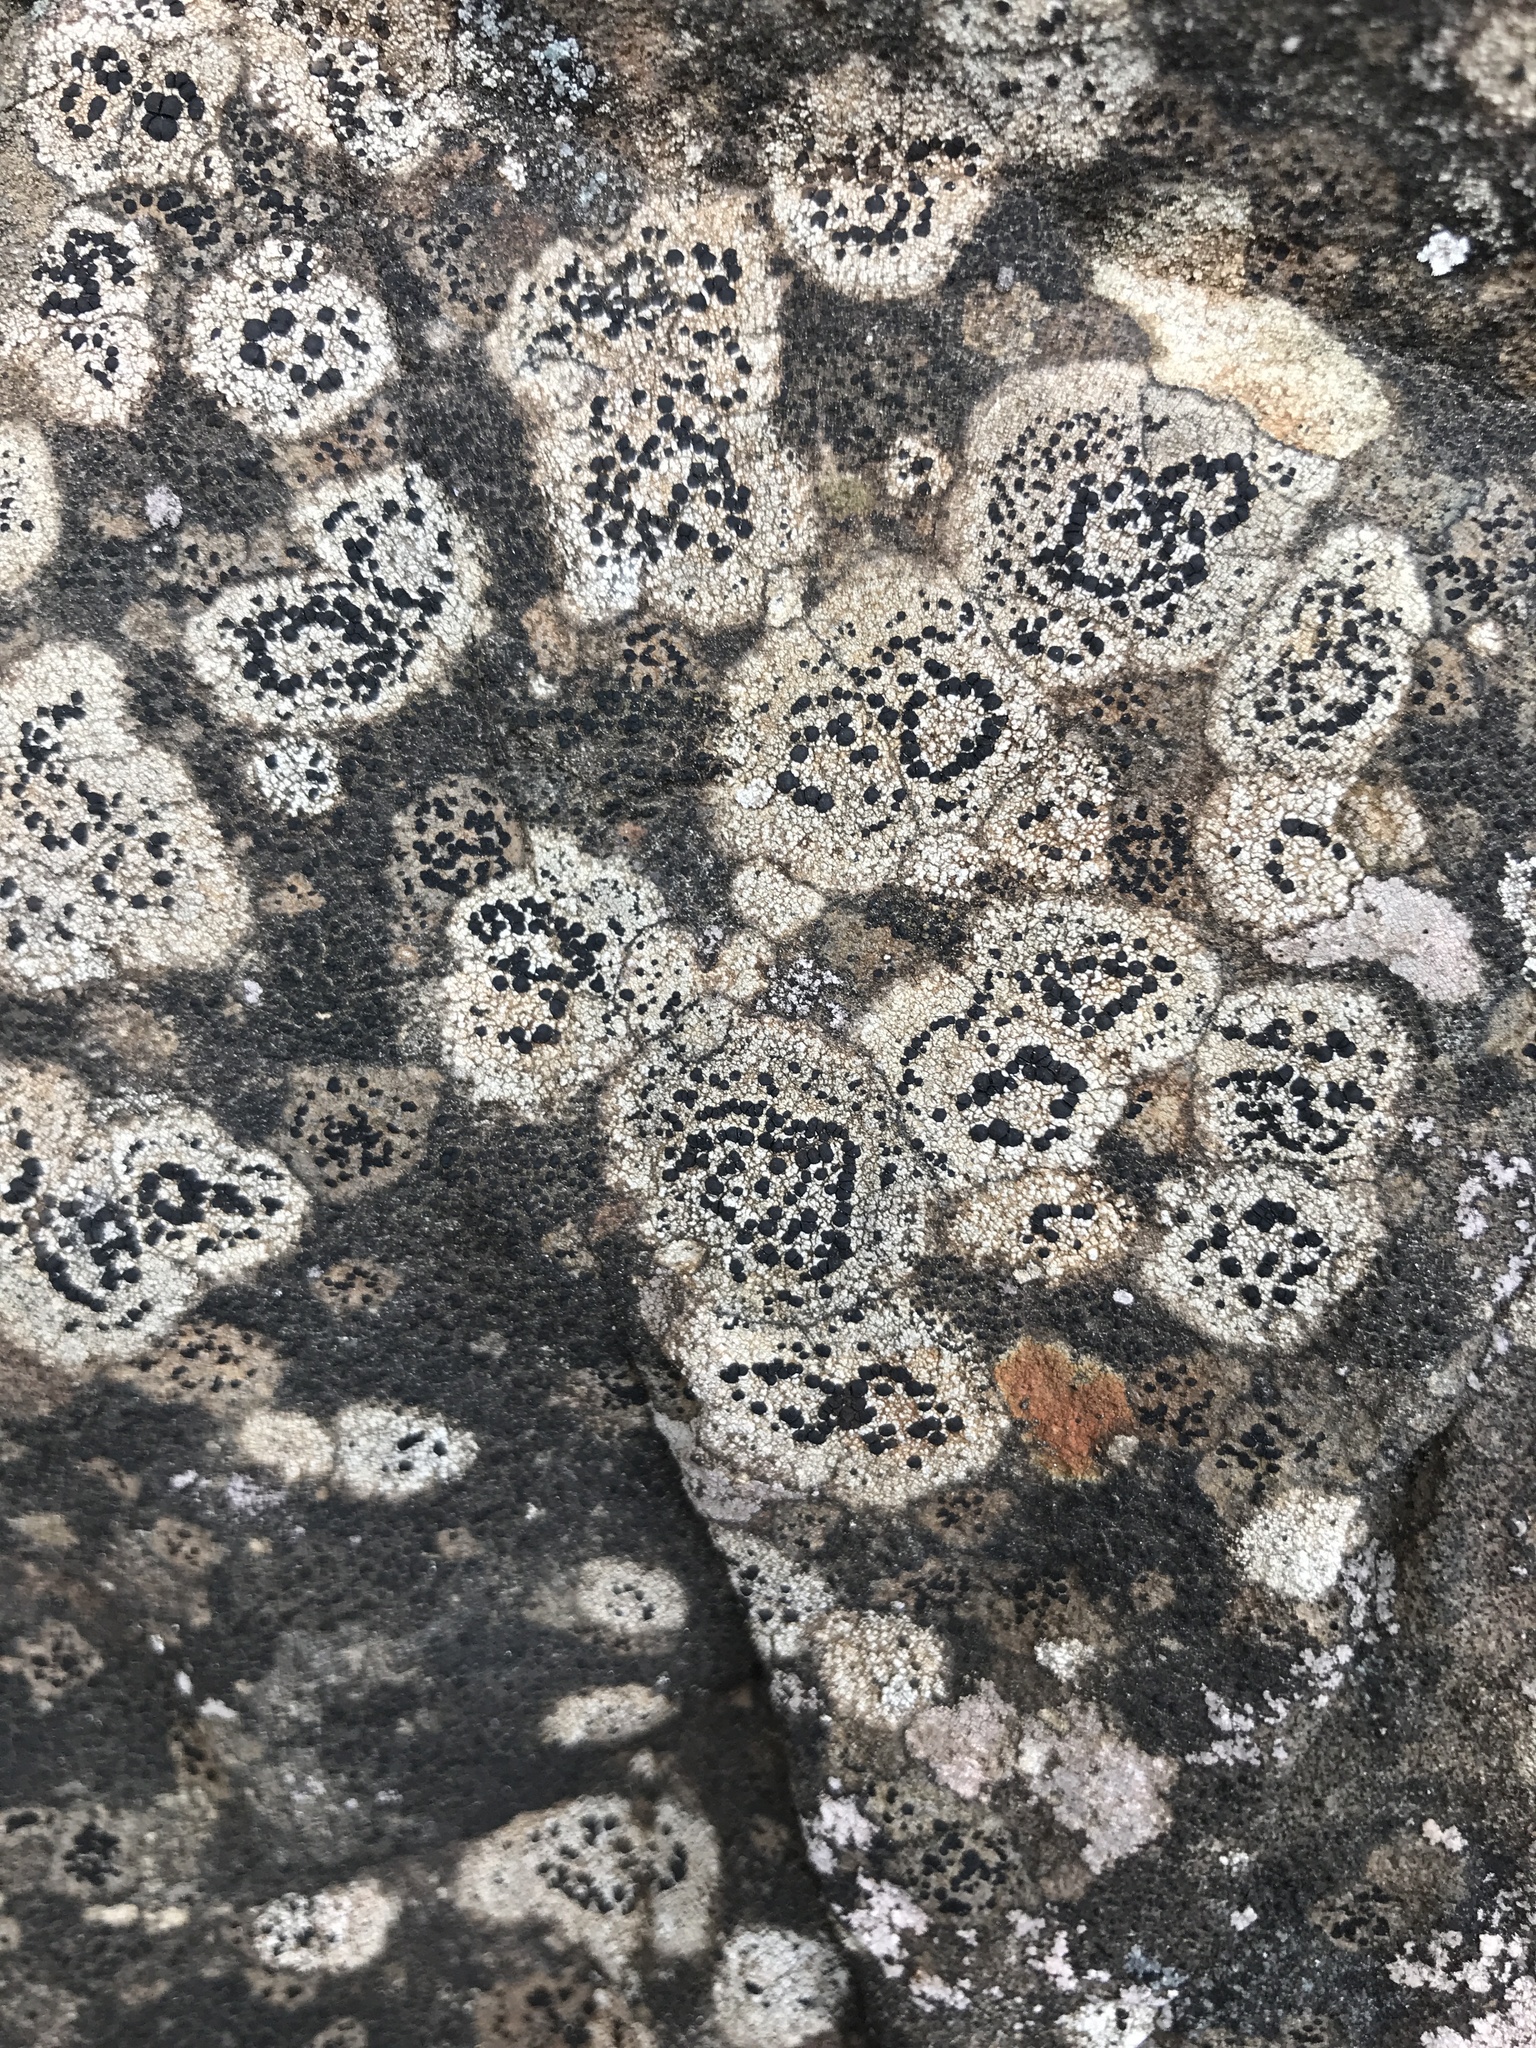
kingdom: Fungi
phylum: Ascomycota
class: Lecanoromycetes
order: Lecideales
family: Lecideaceae
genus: Porpidia
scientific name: Porpidia crustulata
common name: Concentric boulder lichen
